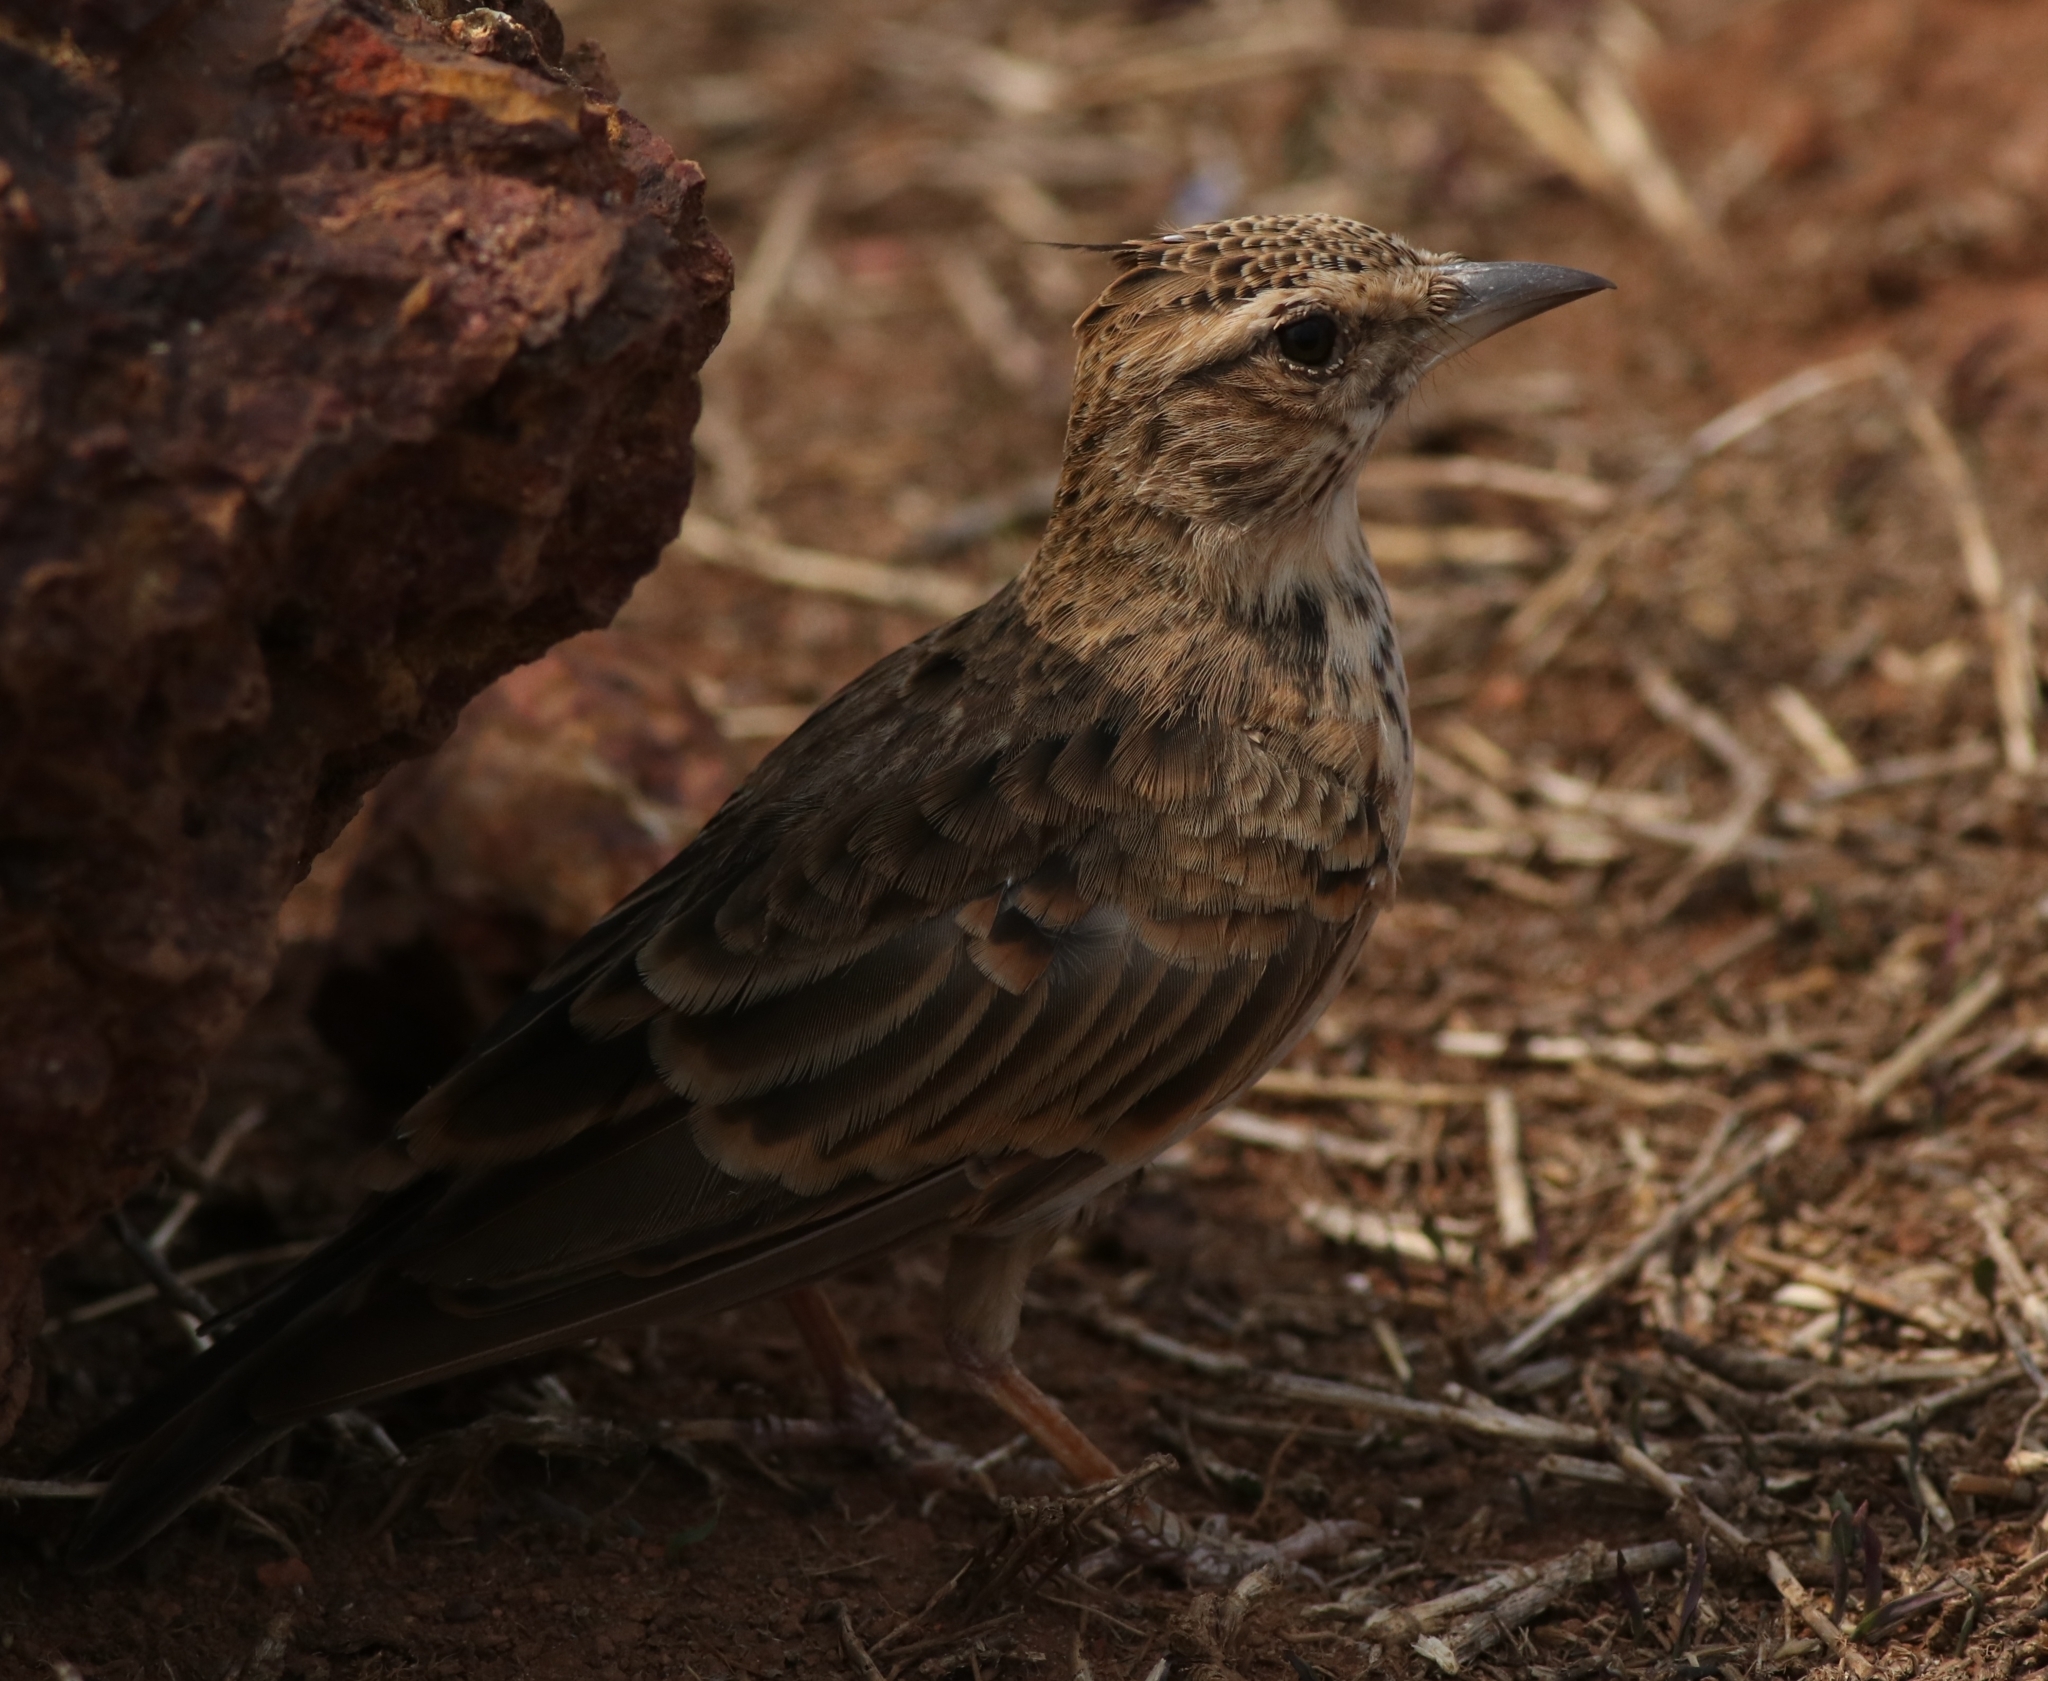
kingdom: Animalia
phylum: Chordata
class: Aves
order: Passeriformes
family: Alaudidae
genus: Galerida
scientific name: Galerida malabarica
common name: Malabar lark
